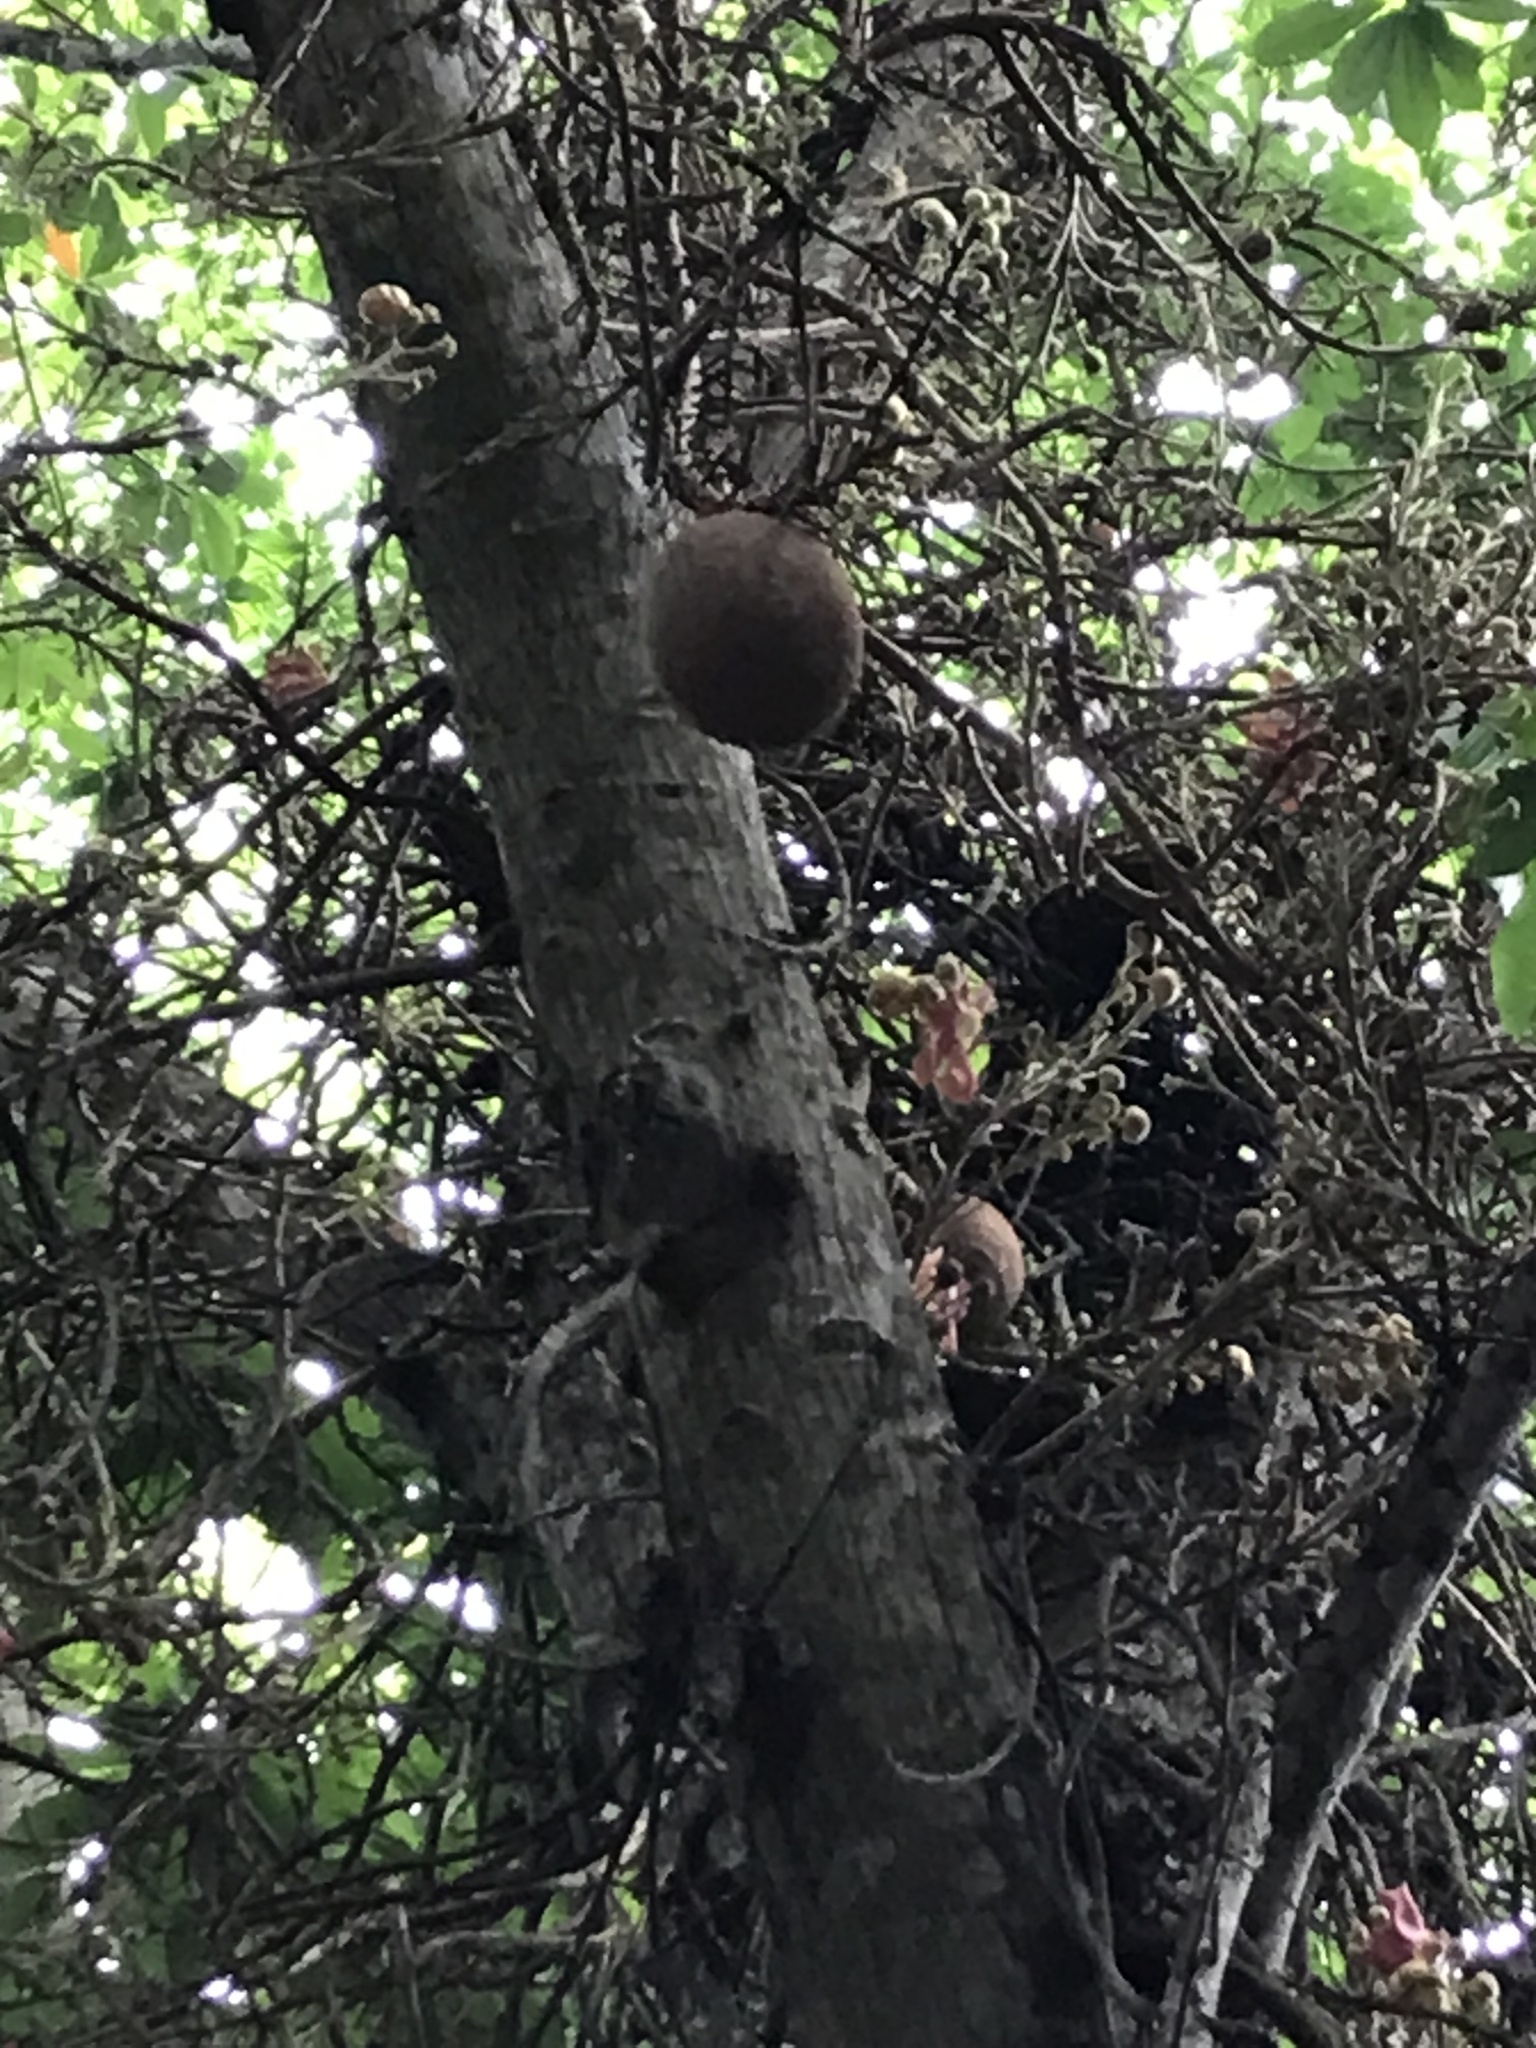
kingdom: Plantae
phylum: Tracheophyta
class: Magnoliopsida
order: Ericales
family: Lecythidaceae
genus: Couroupita
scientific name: Couroupita guianensis
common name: Cannonball tree
